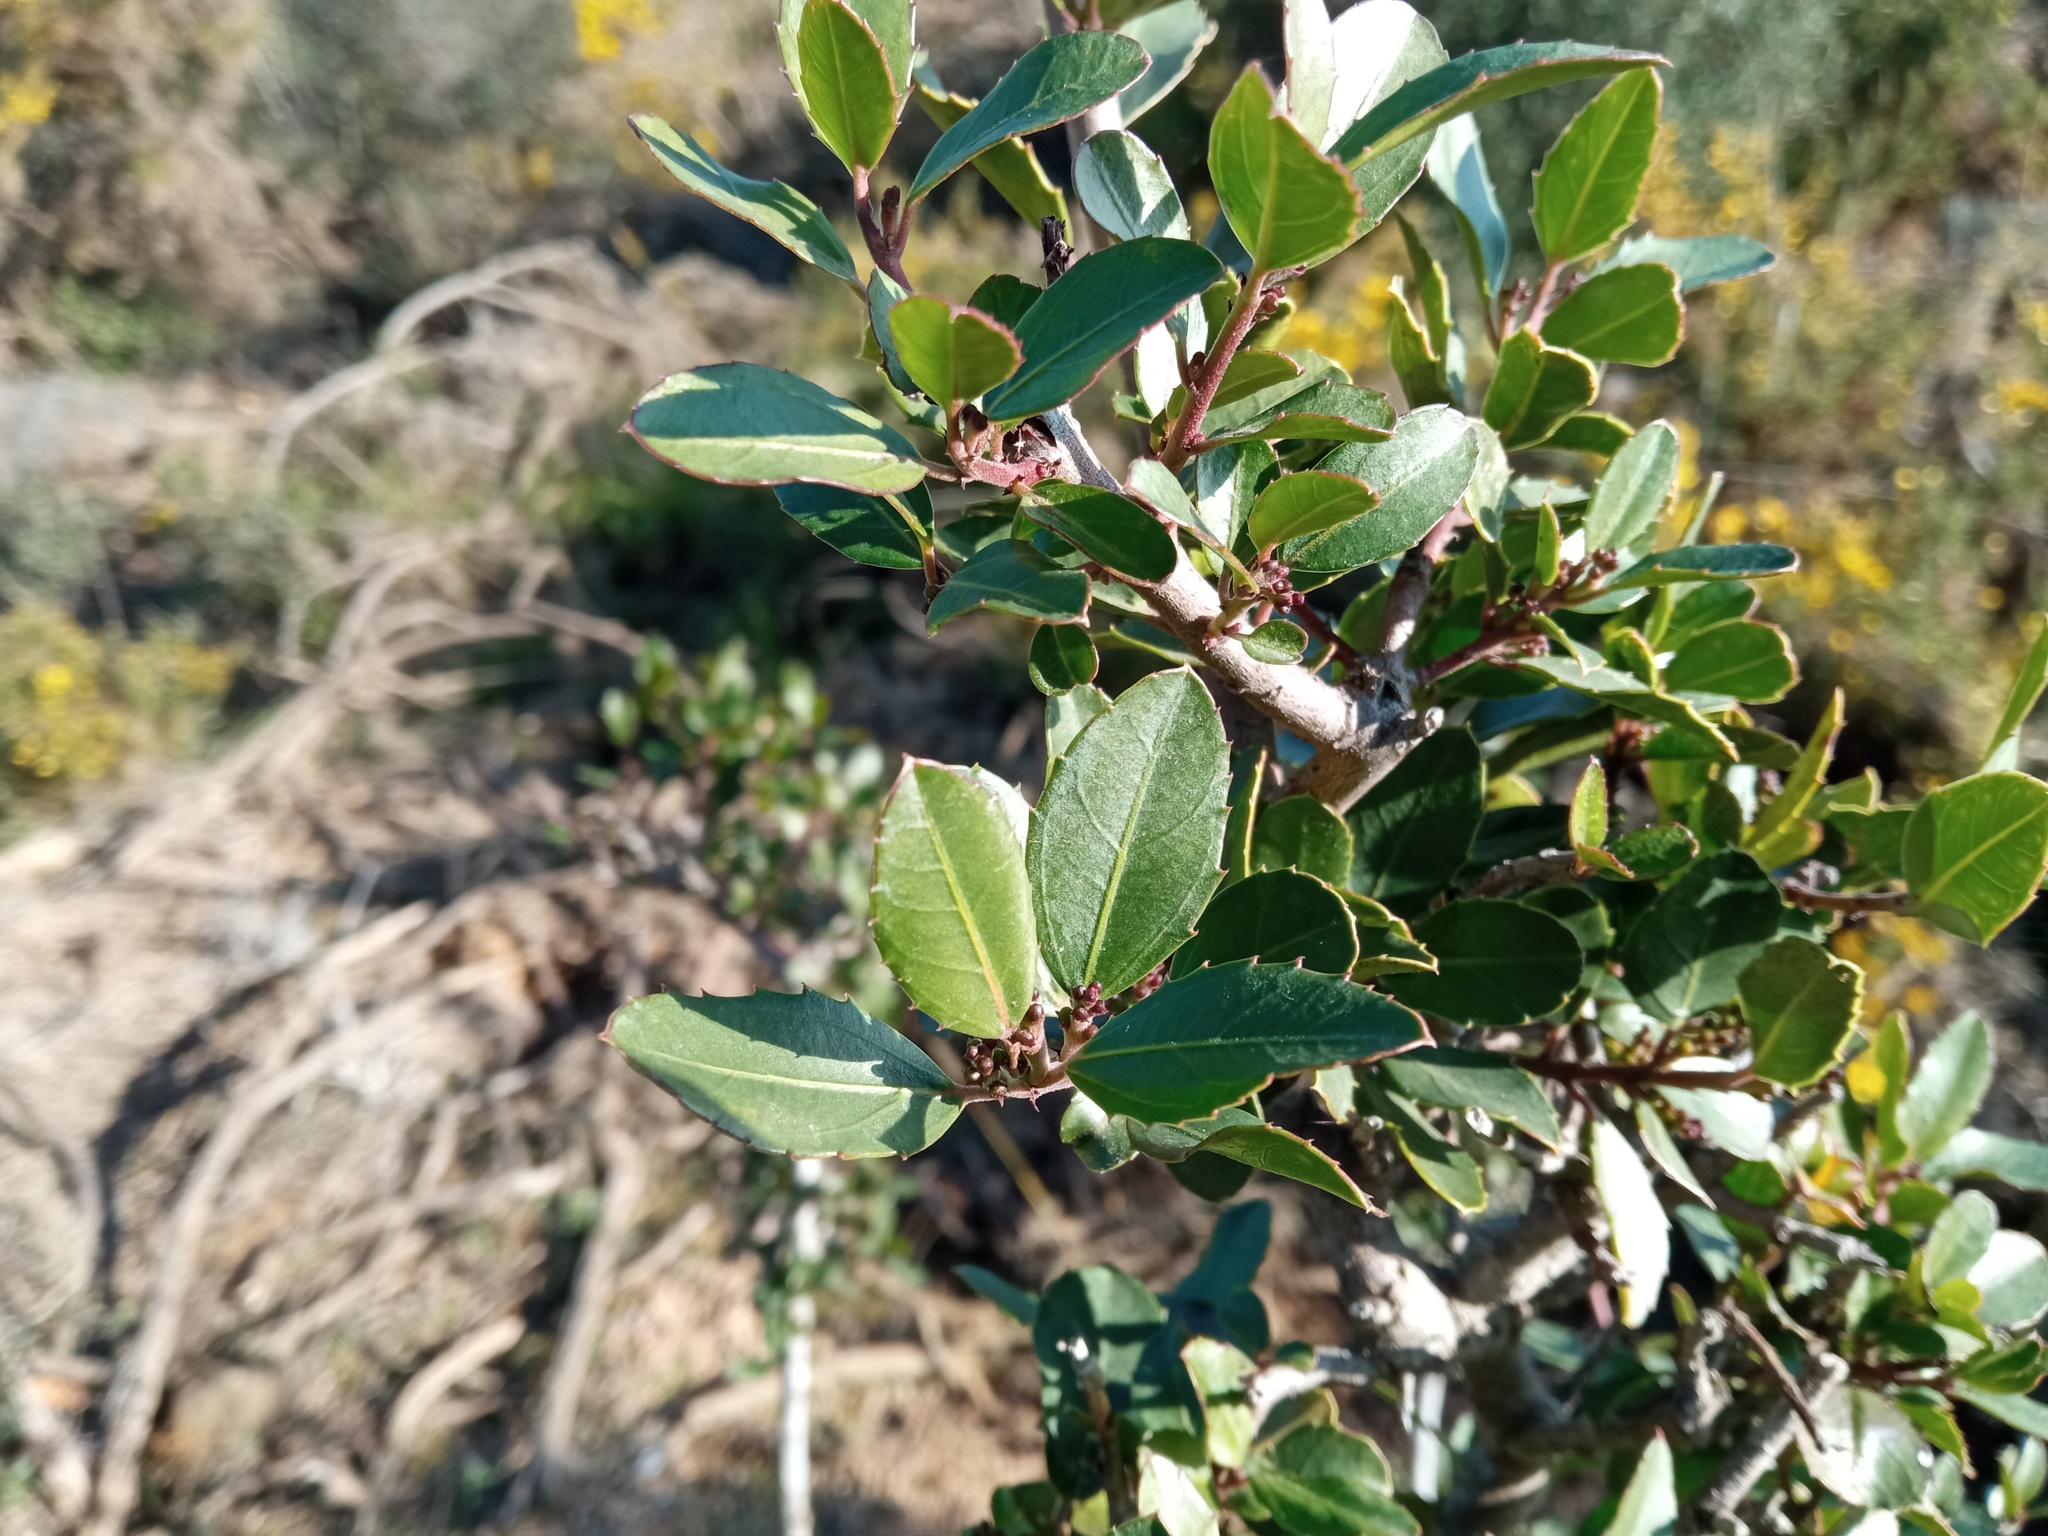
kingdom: Plantae
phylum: Tracheophyta
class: Magnoliopsida
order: Rosales
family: Rhamnaceae
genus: Rhamnus
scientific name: Rhamnus alaternus
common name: Mediterranean buckthorn
